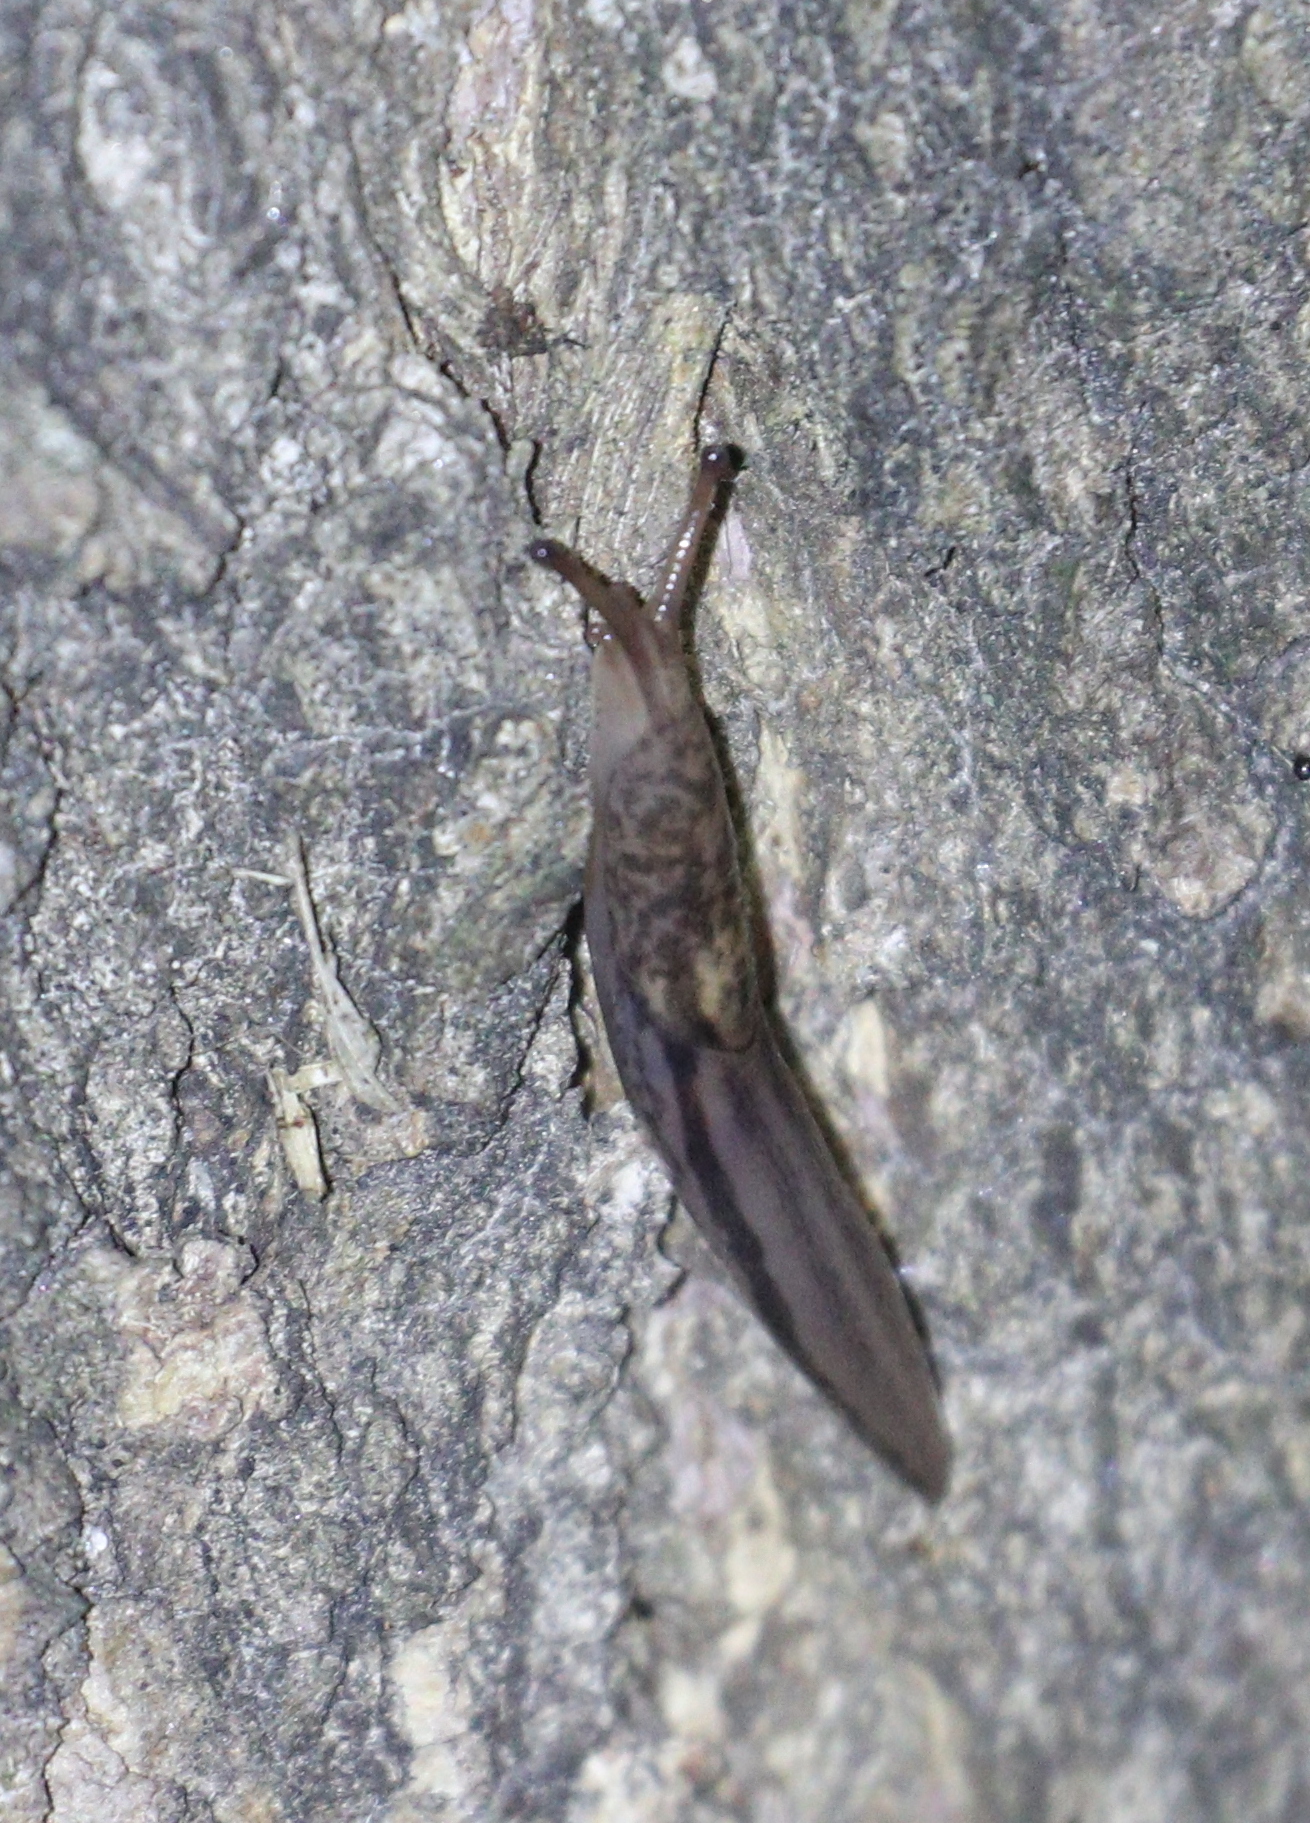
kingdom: Animalia
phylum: Mollusca
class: Gastropoda
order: Stylommatophora
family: Limacidae
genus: Limax
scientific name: Limax maximus
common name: Great grey slug
